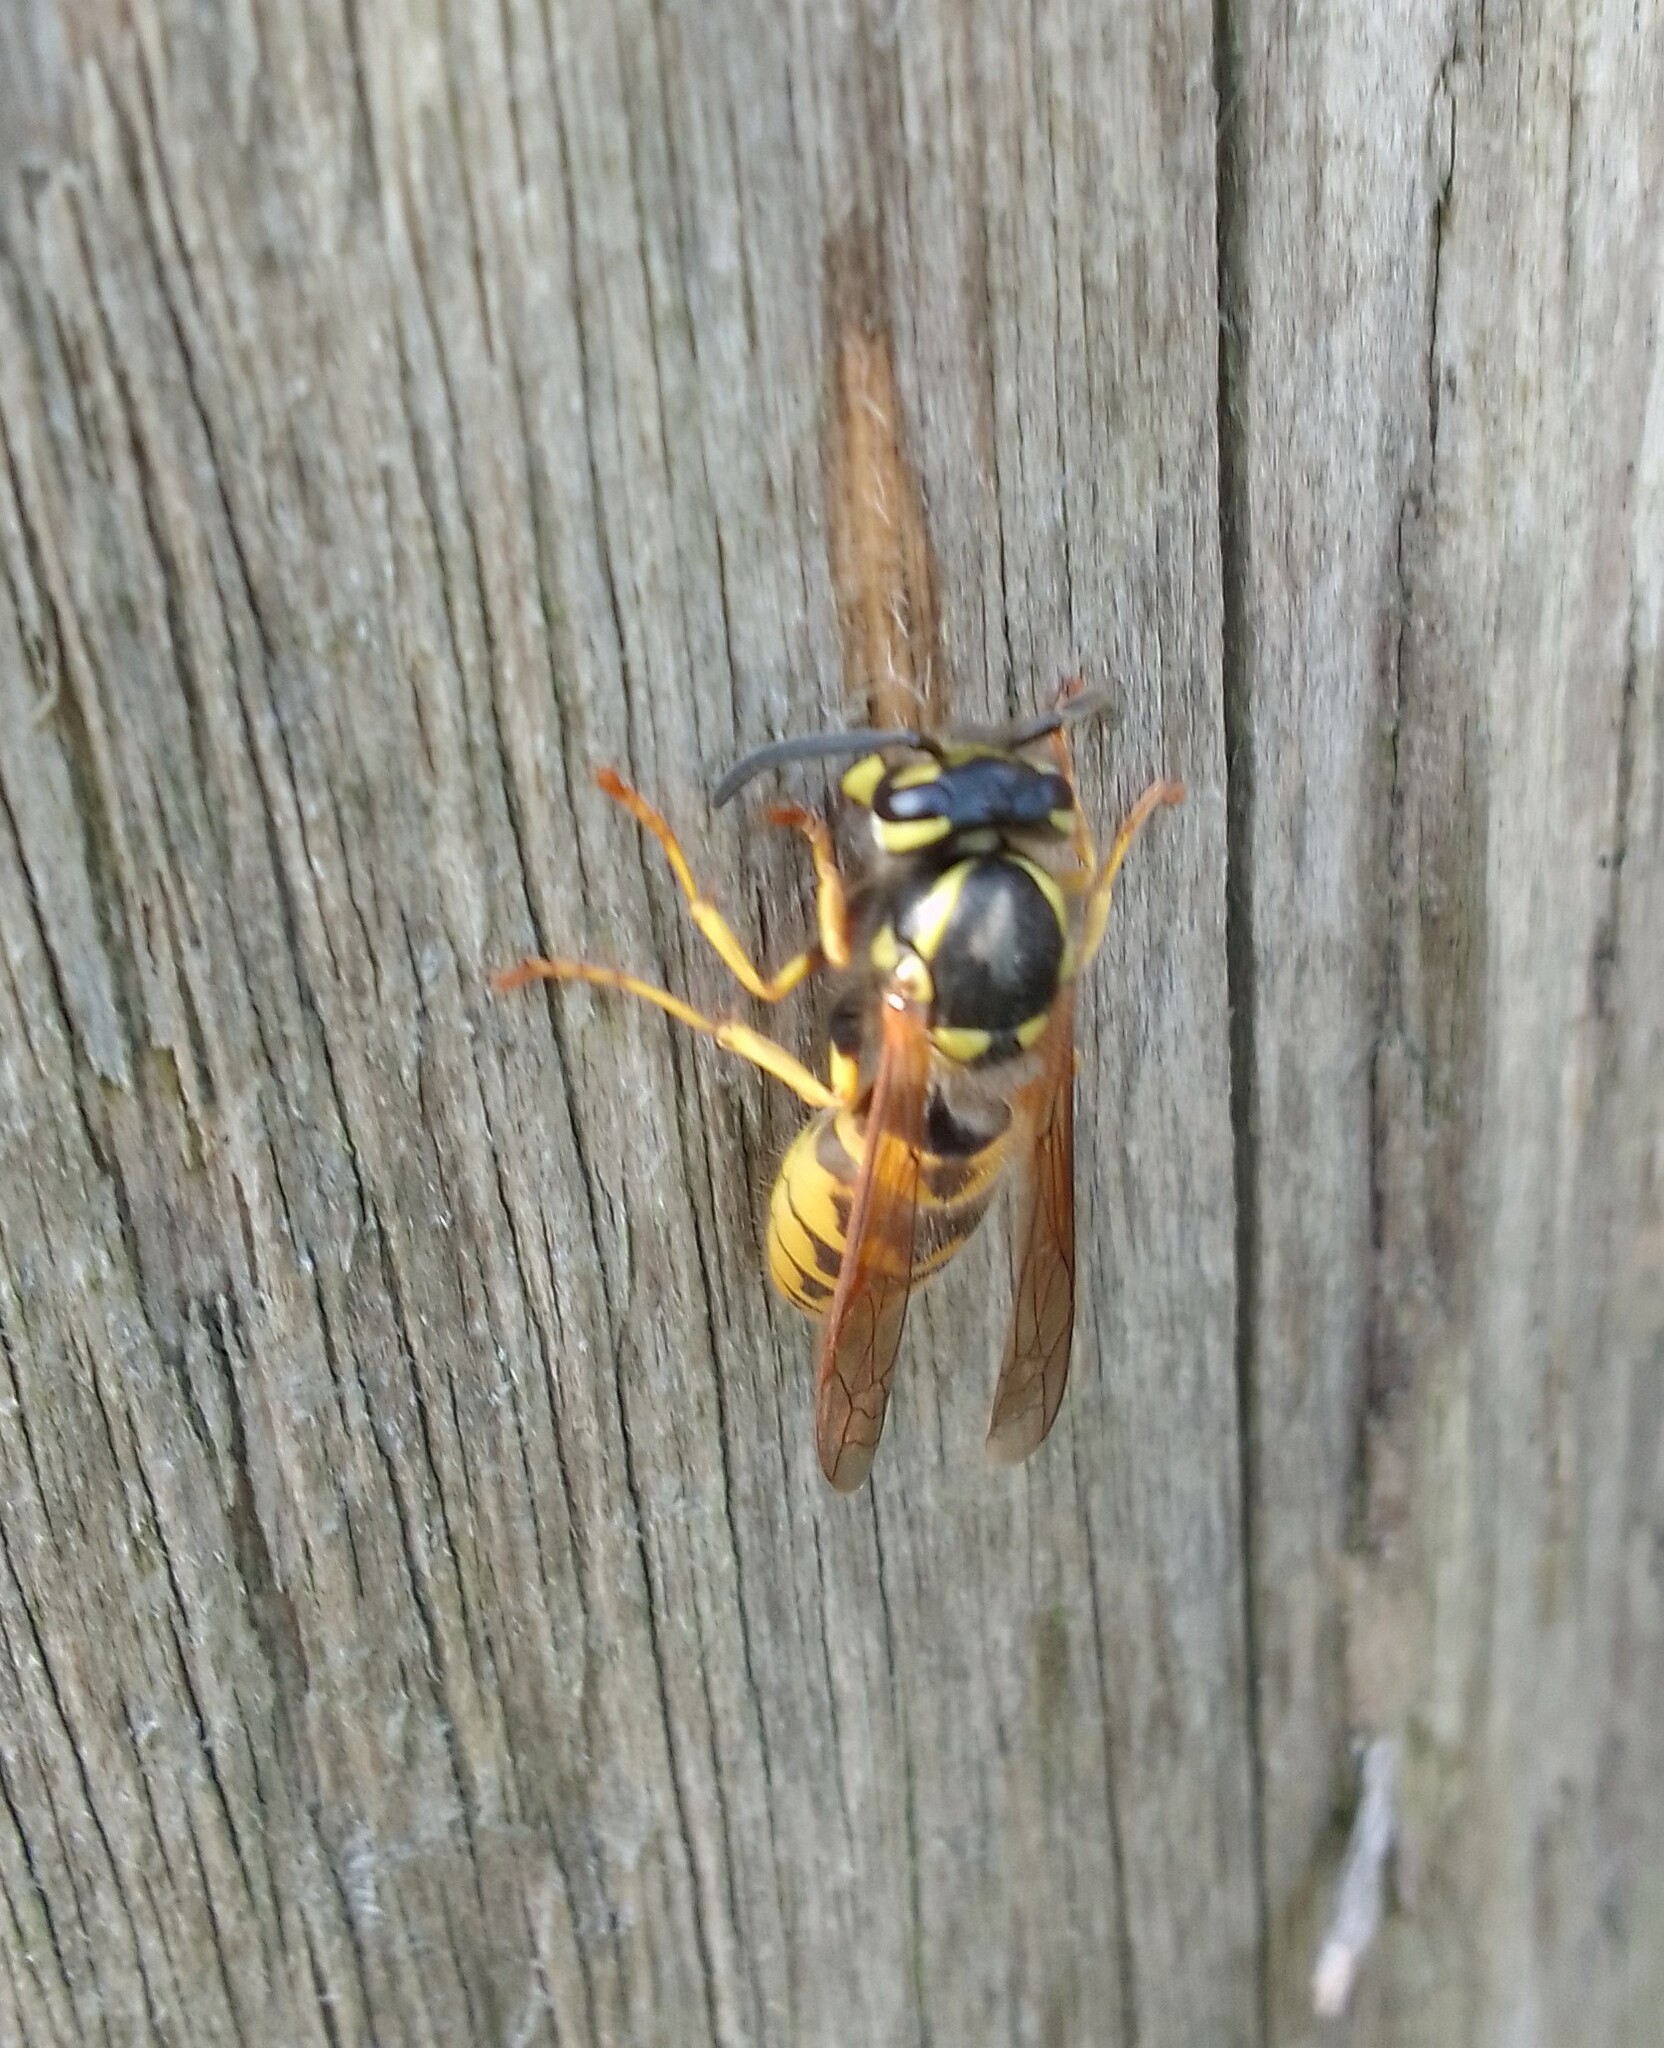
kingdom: Animalia
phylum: Arthropoda
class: Insecta
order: Hymenoptera
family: Vespidae
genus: Vespula
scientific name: Vespula germanica
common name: German wasp
